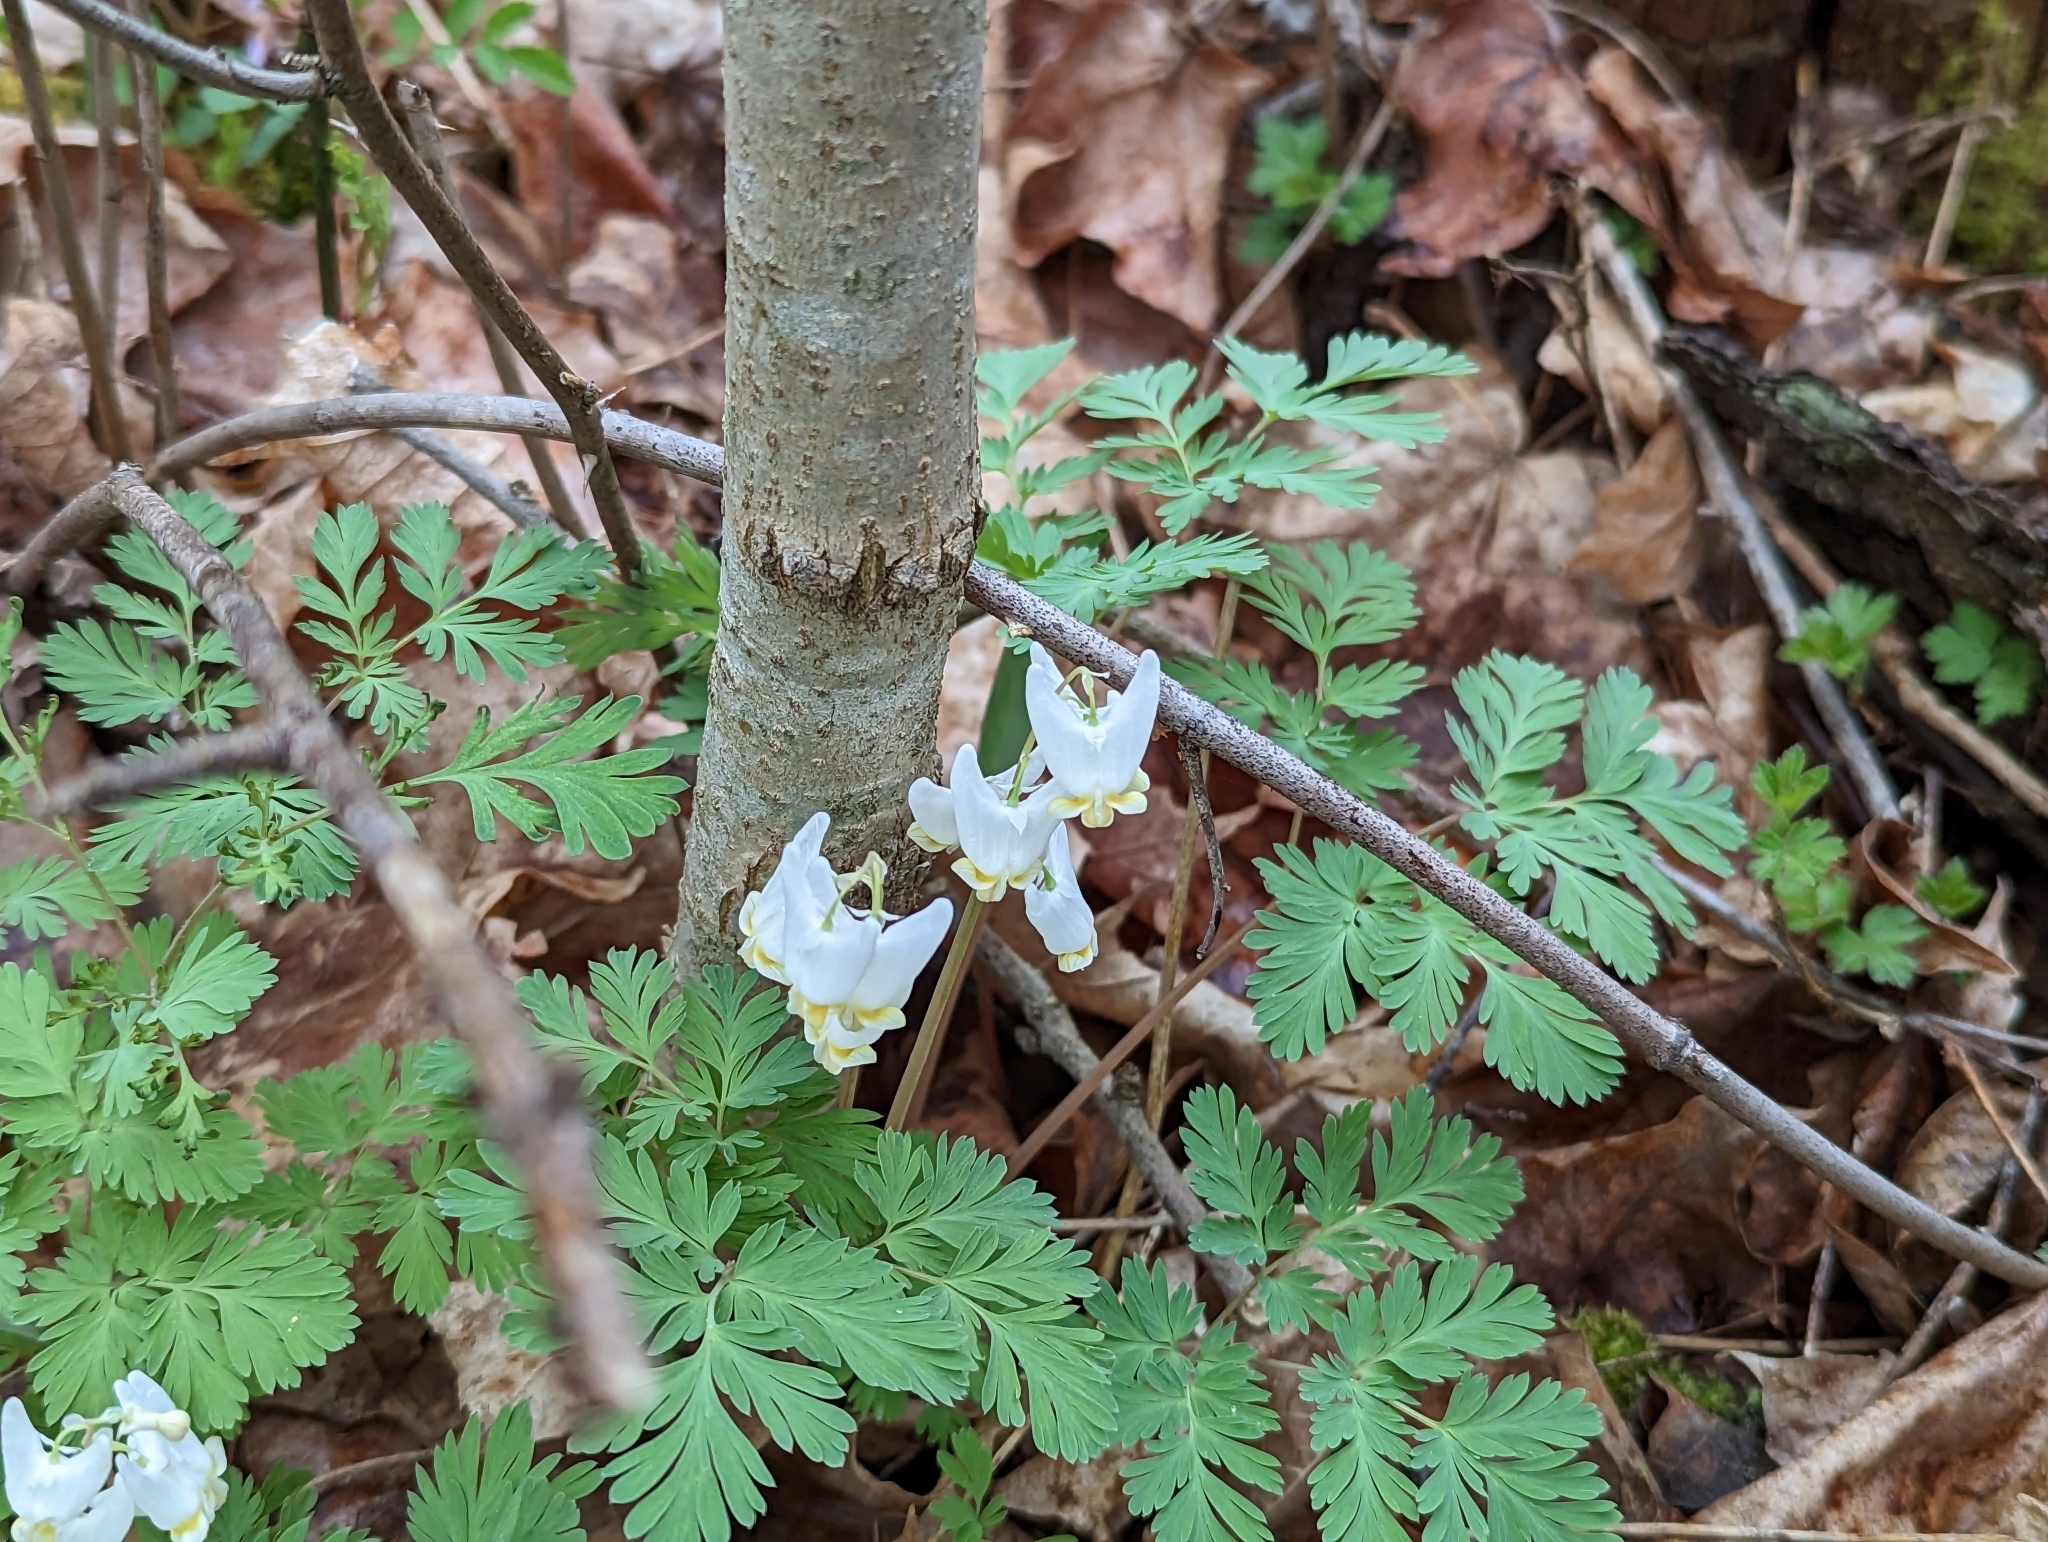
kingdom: Plantae
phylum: Tracheophyta
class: Magnoliopsida
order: Ranunculales
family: Papaveraceae
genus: Dicentra
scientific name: Dicentra cucullaria
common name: Dutchman's breeches
